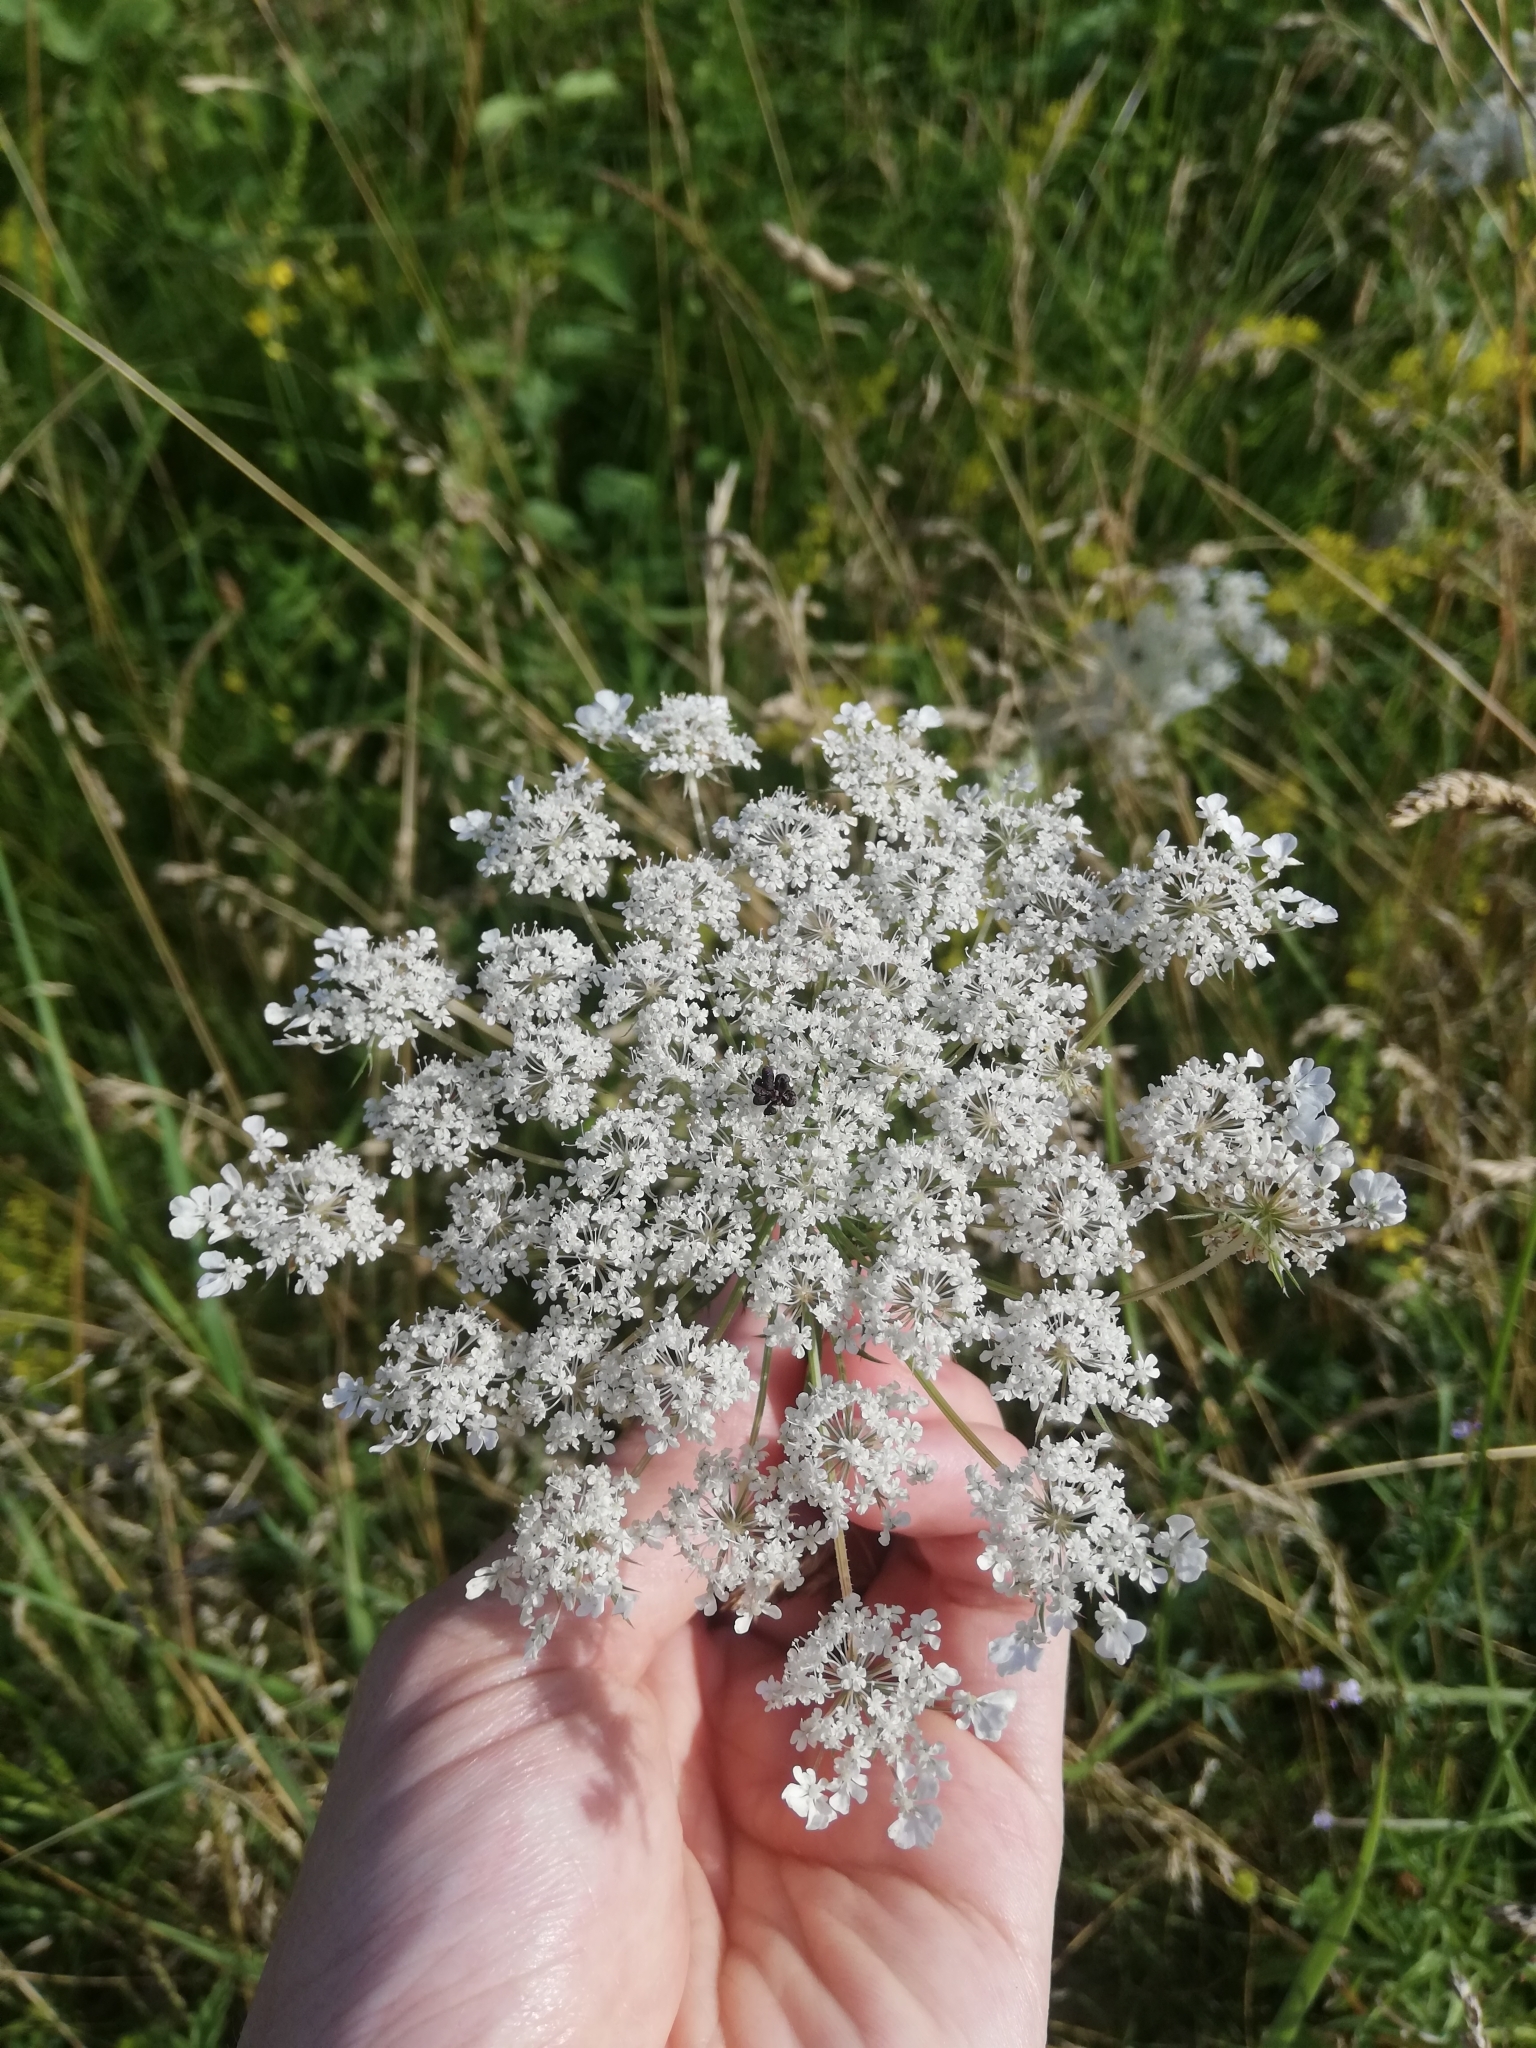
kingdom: Animalia
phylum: Arthropoda
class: Insecta
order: Diptera
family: Syrphidae
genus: Sphaerophoria
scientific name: Sphaerophoria scripta
